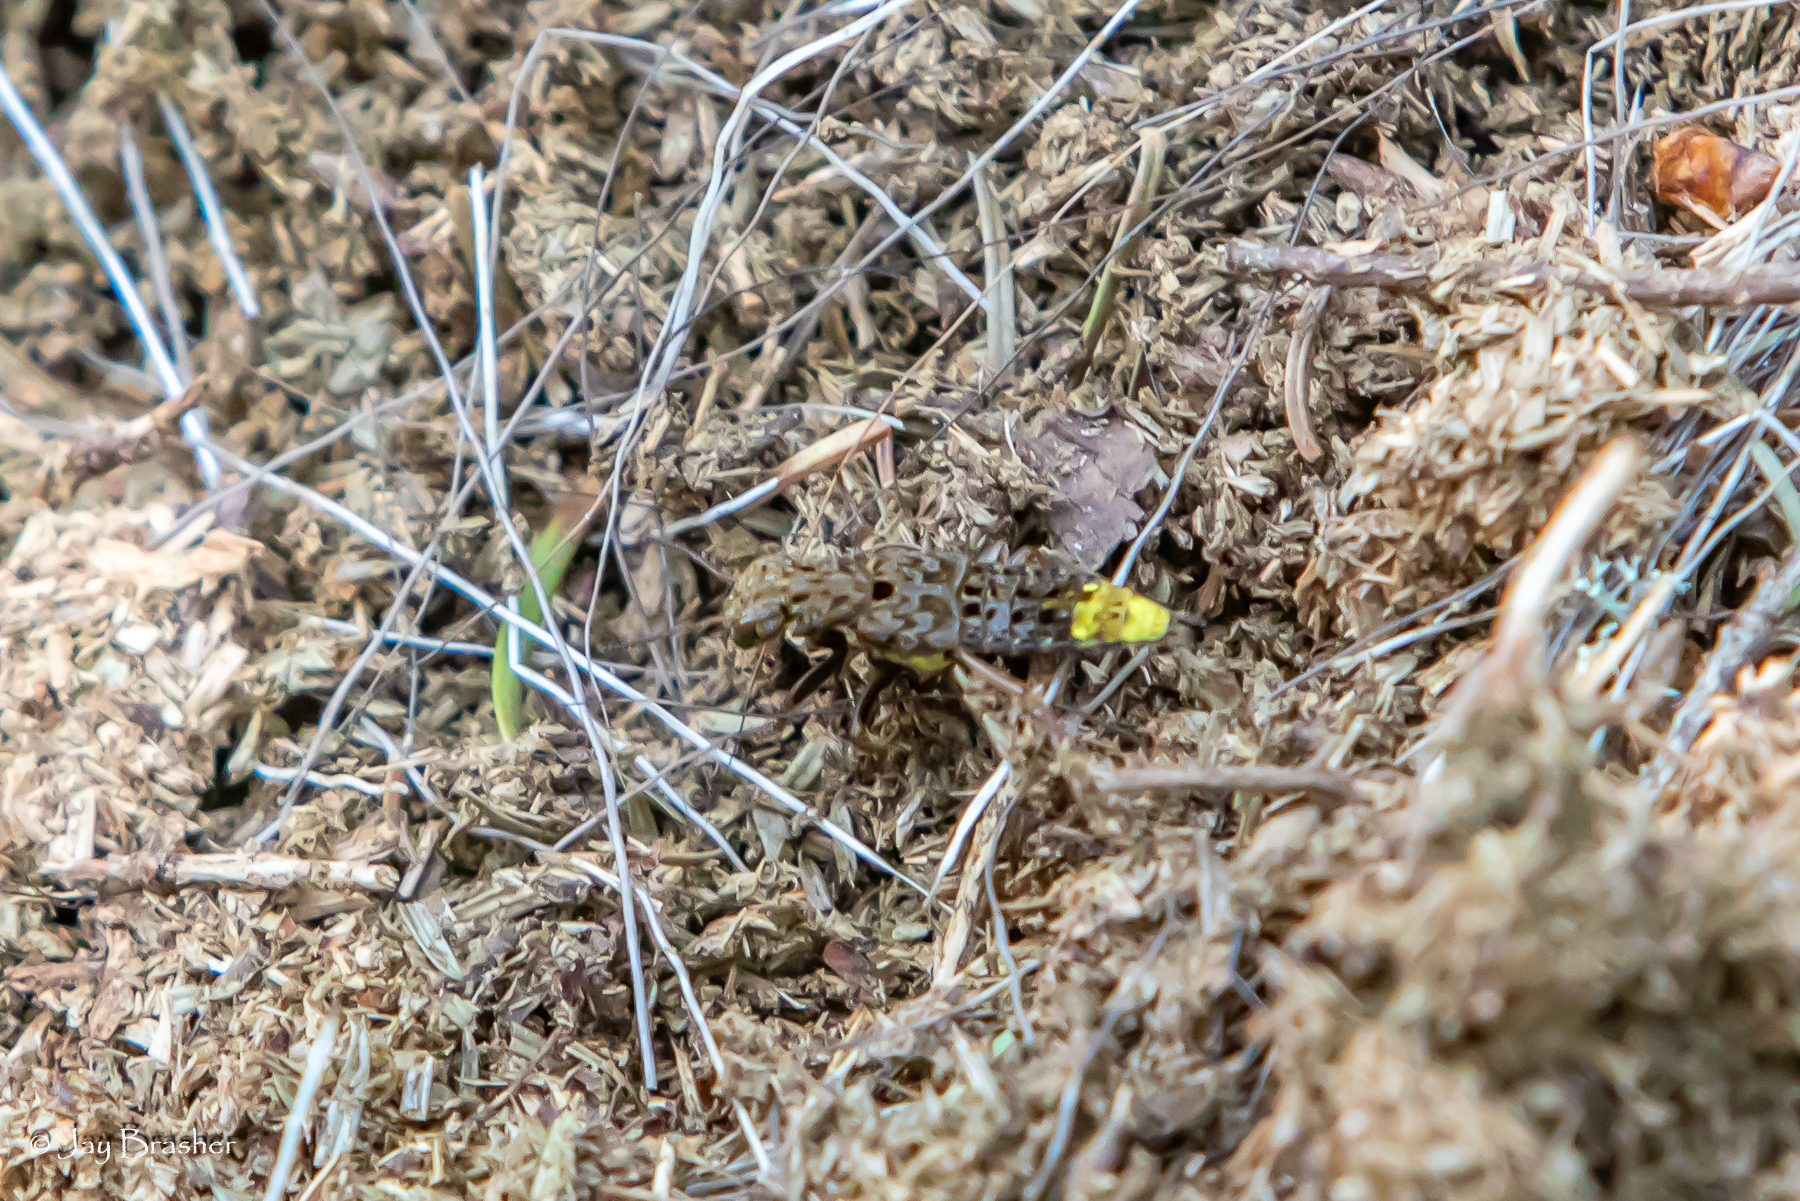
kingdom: Animalia
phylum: Arthropoda
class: Insecta
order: Coleoptera
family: Staphylinidae
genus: Ontholestes
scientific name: Ontholestes cingulatus
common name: Gold-and-brown rove beetle
